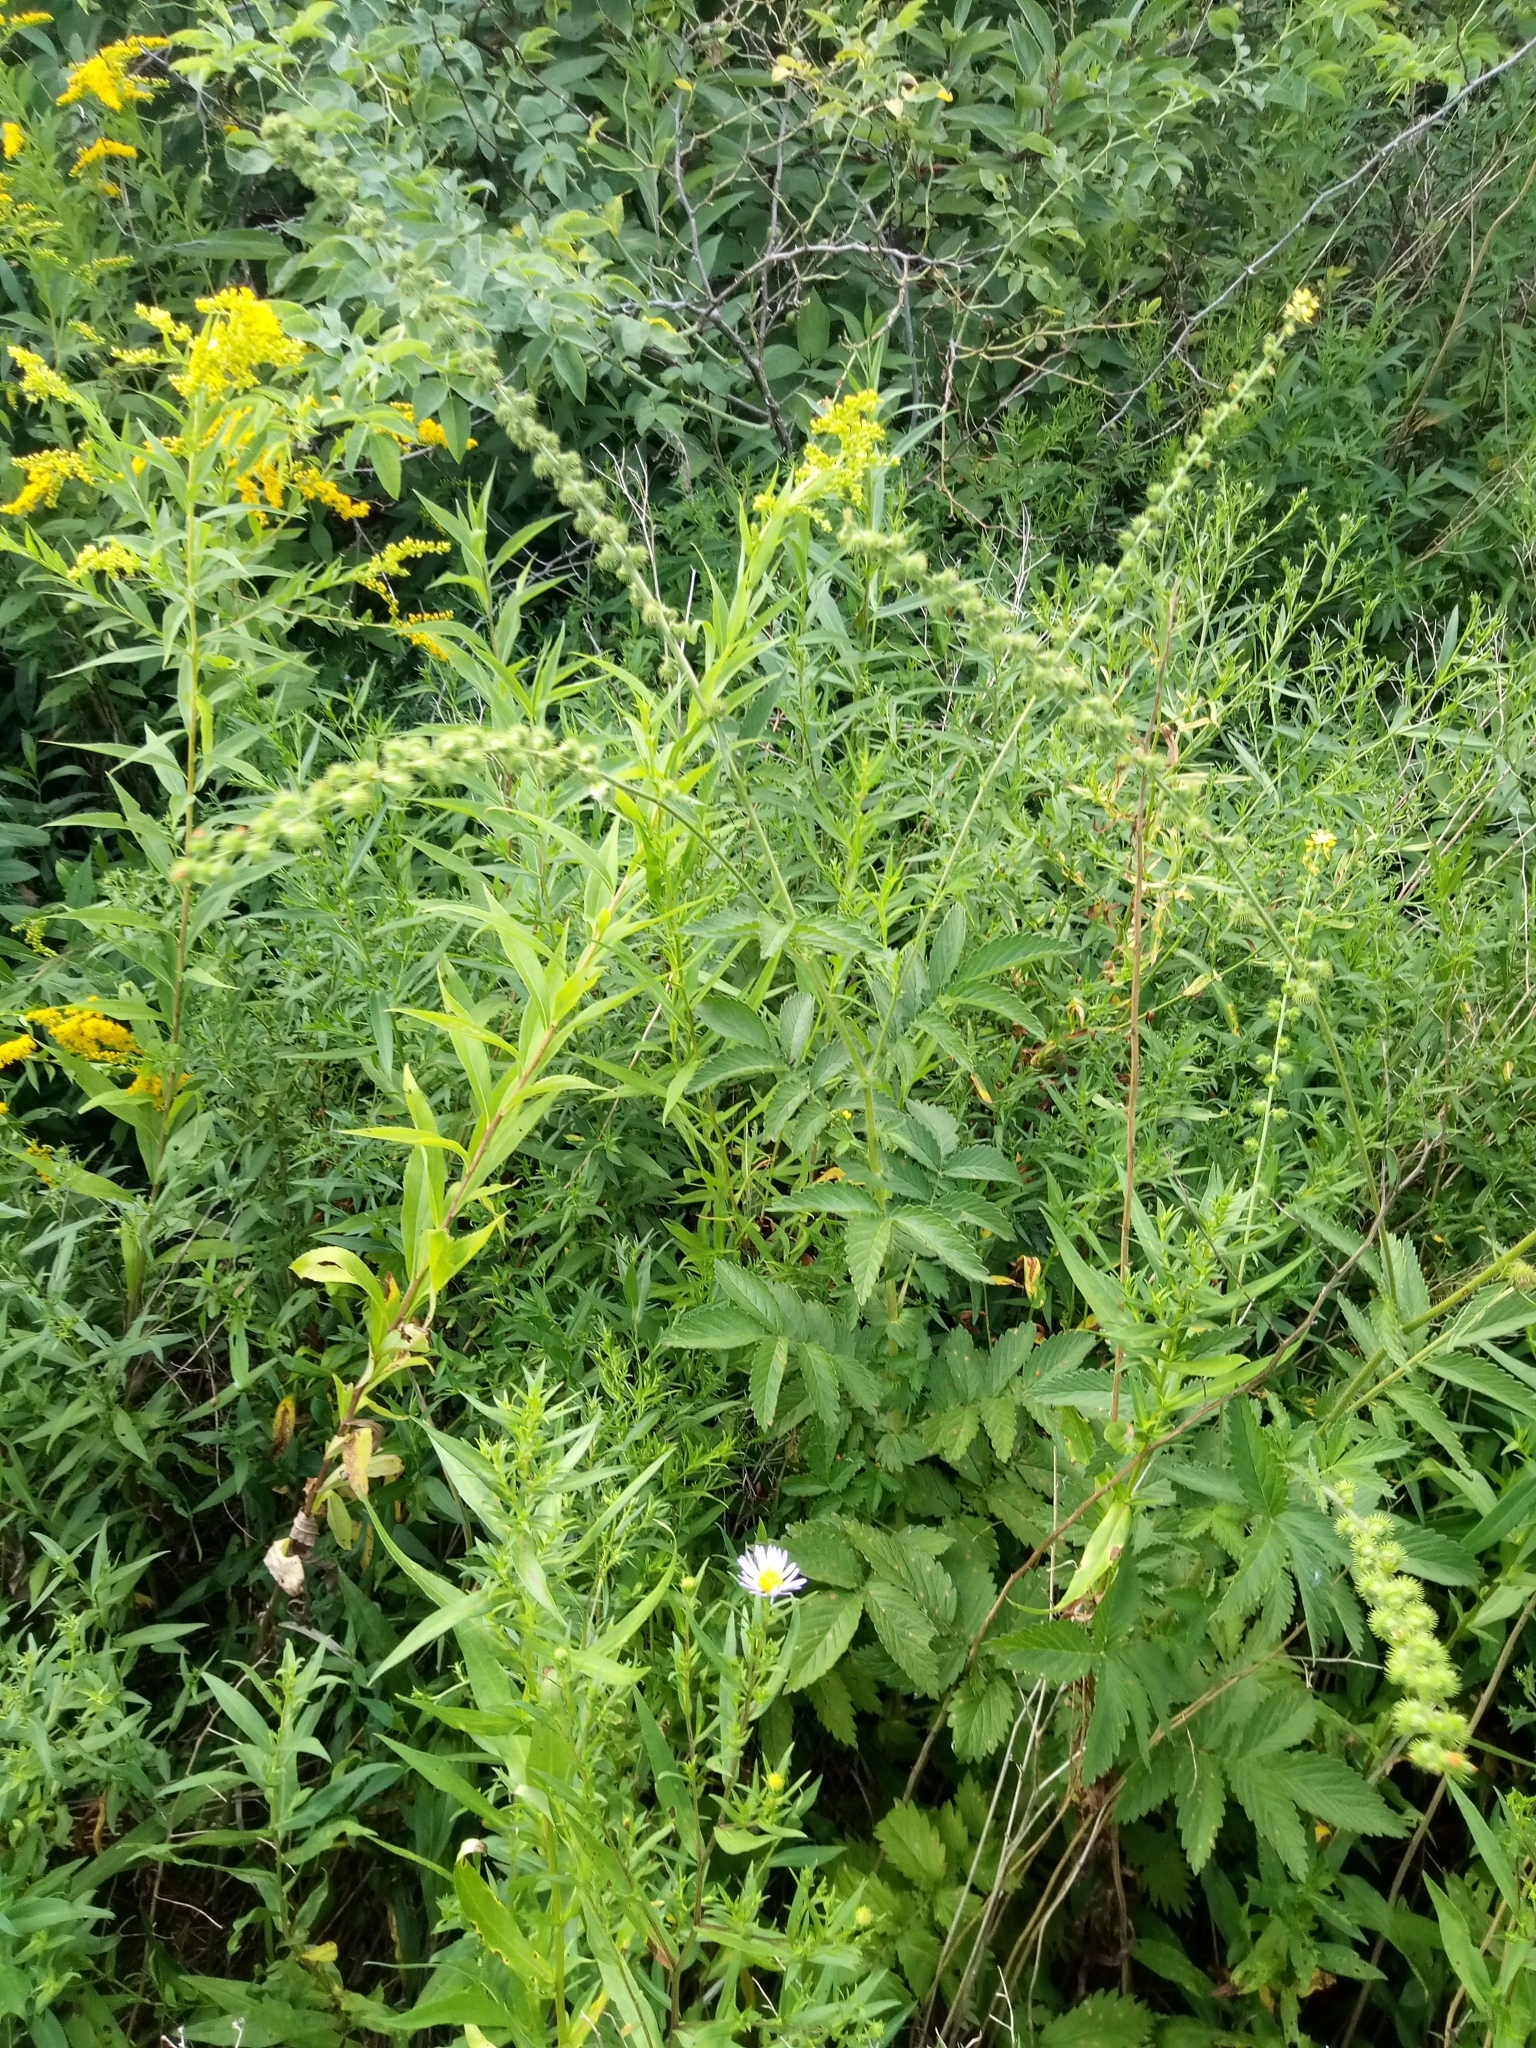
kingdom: Plantae
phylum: Tracheophyta
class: Magnoliopsida
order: Rosales
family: Rosaceae
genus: Agrimonia
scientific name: Agrimonia procera
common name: Fragrant agrimony
